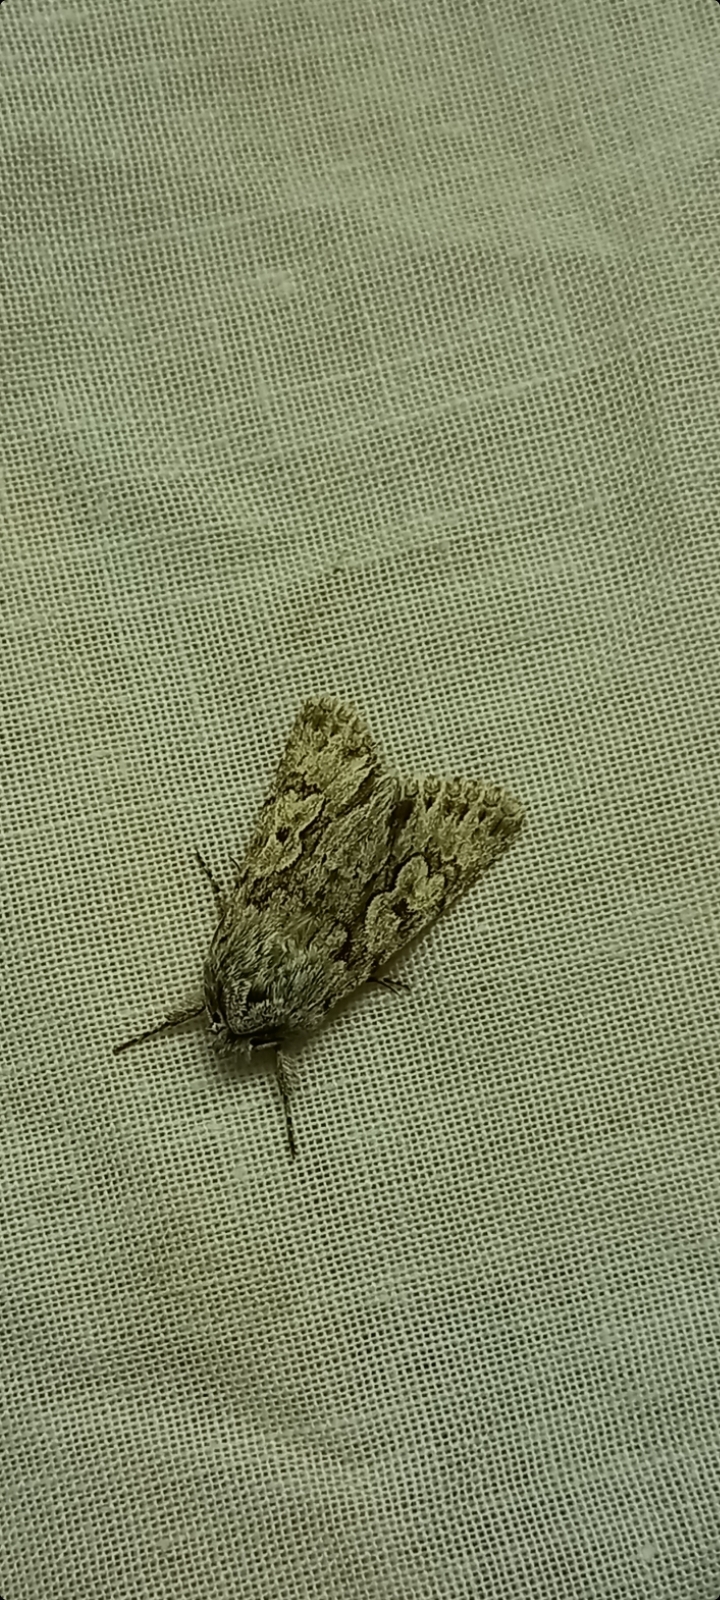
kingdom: Animalia
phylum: Arthropoda
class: Insecta
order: Lepidoptera
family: Noctuidae
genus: Xylocampa
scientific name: Xylocampa areola
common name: Early grey
